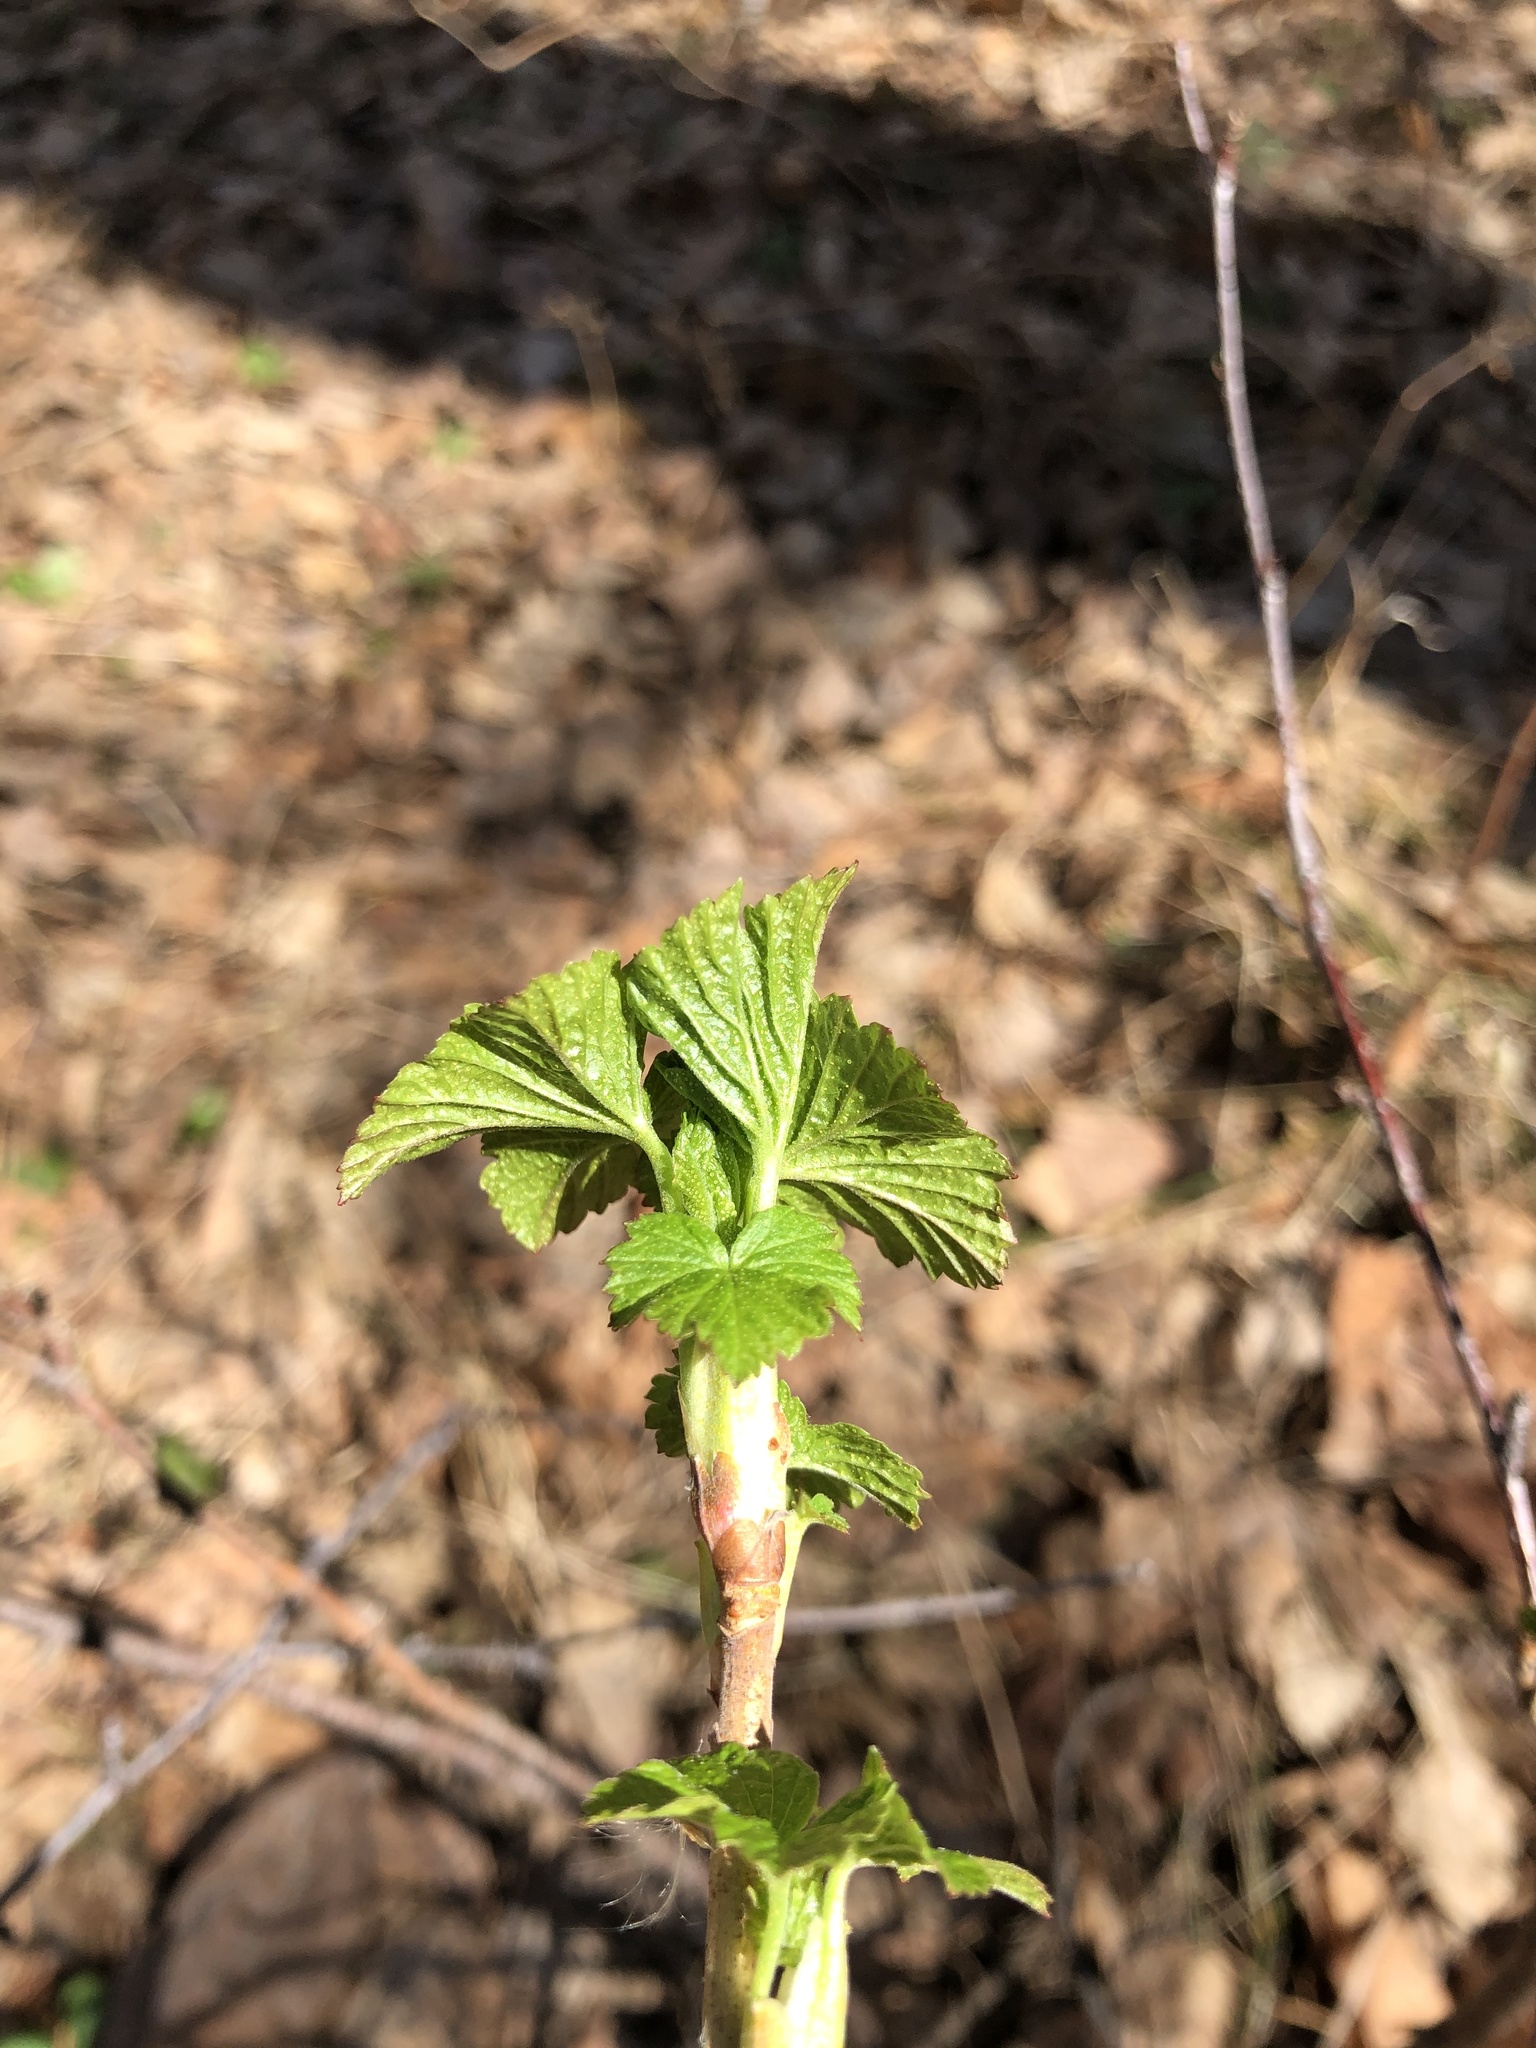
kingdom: Plantae
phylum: Tracheophyta
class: Magnoliopsida
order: Saxifragales
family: Grossulariaceae
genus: Ribes
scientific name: Ribes nigrum
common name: Black currant
